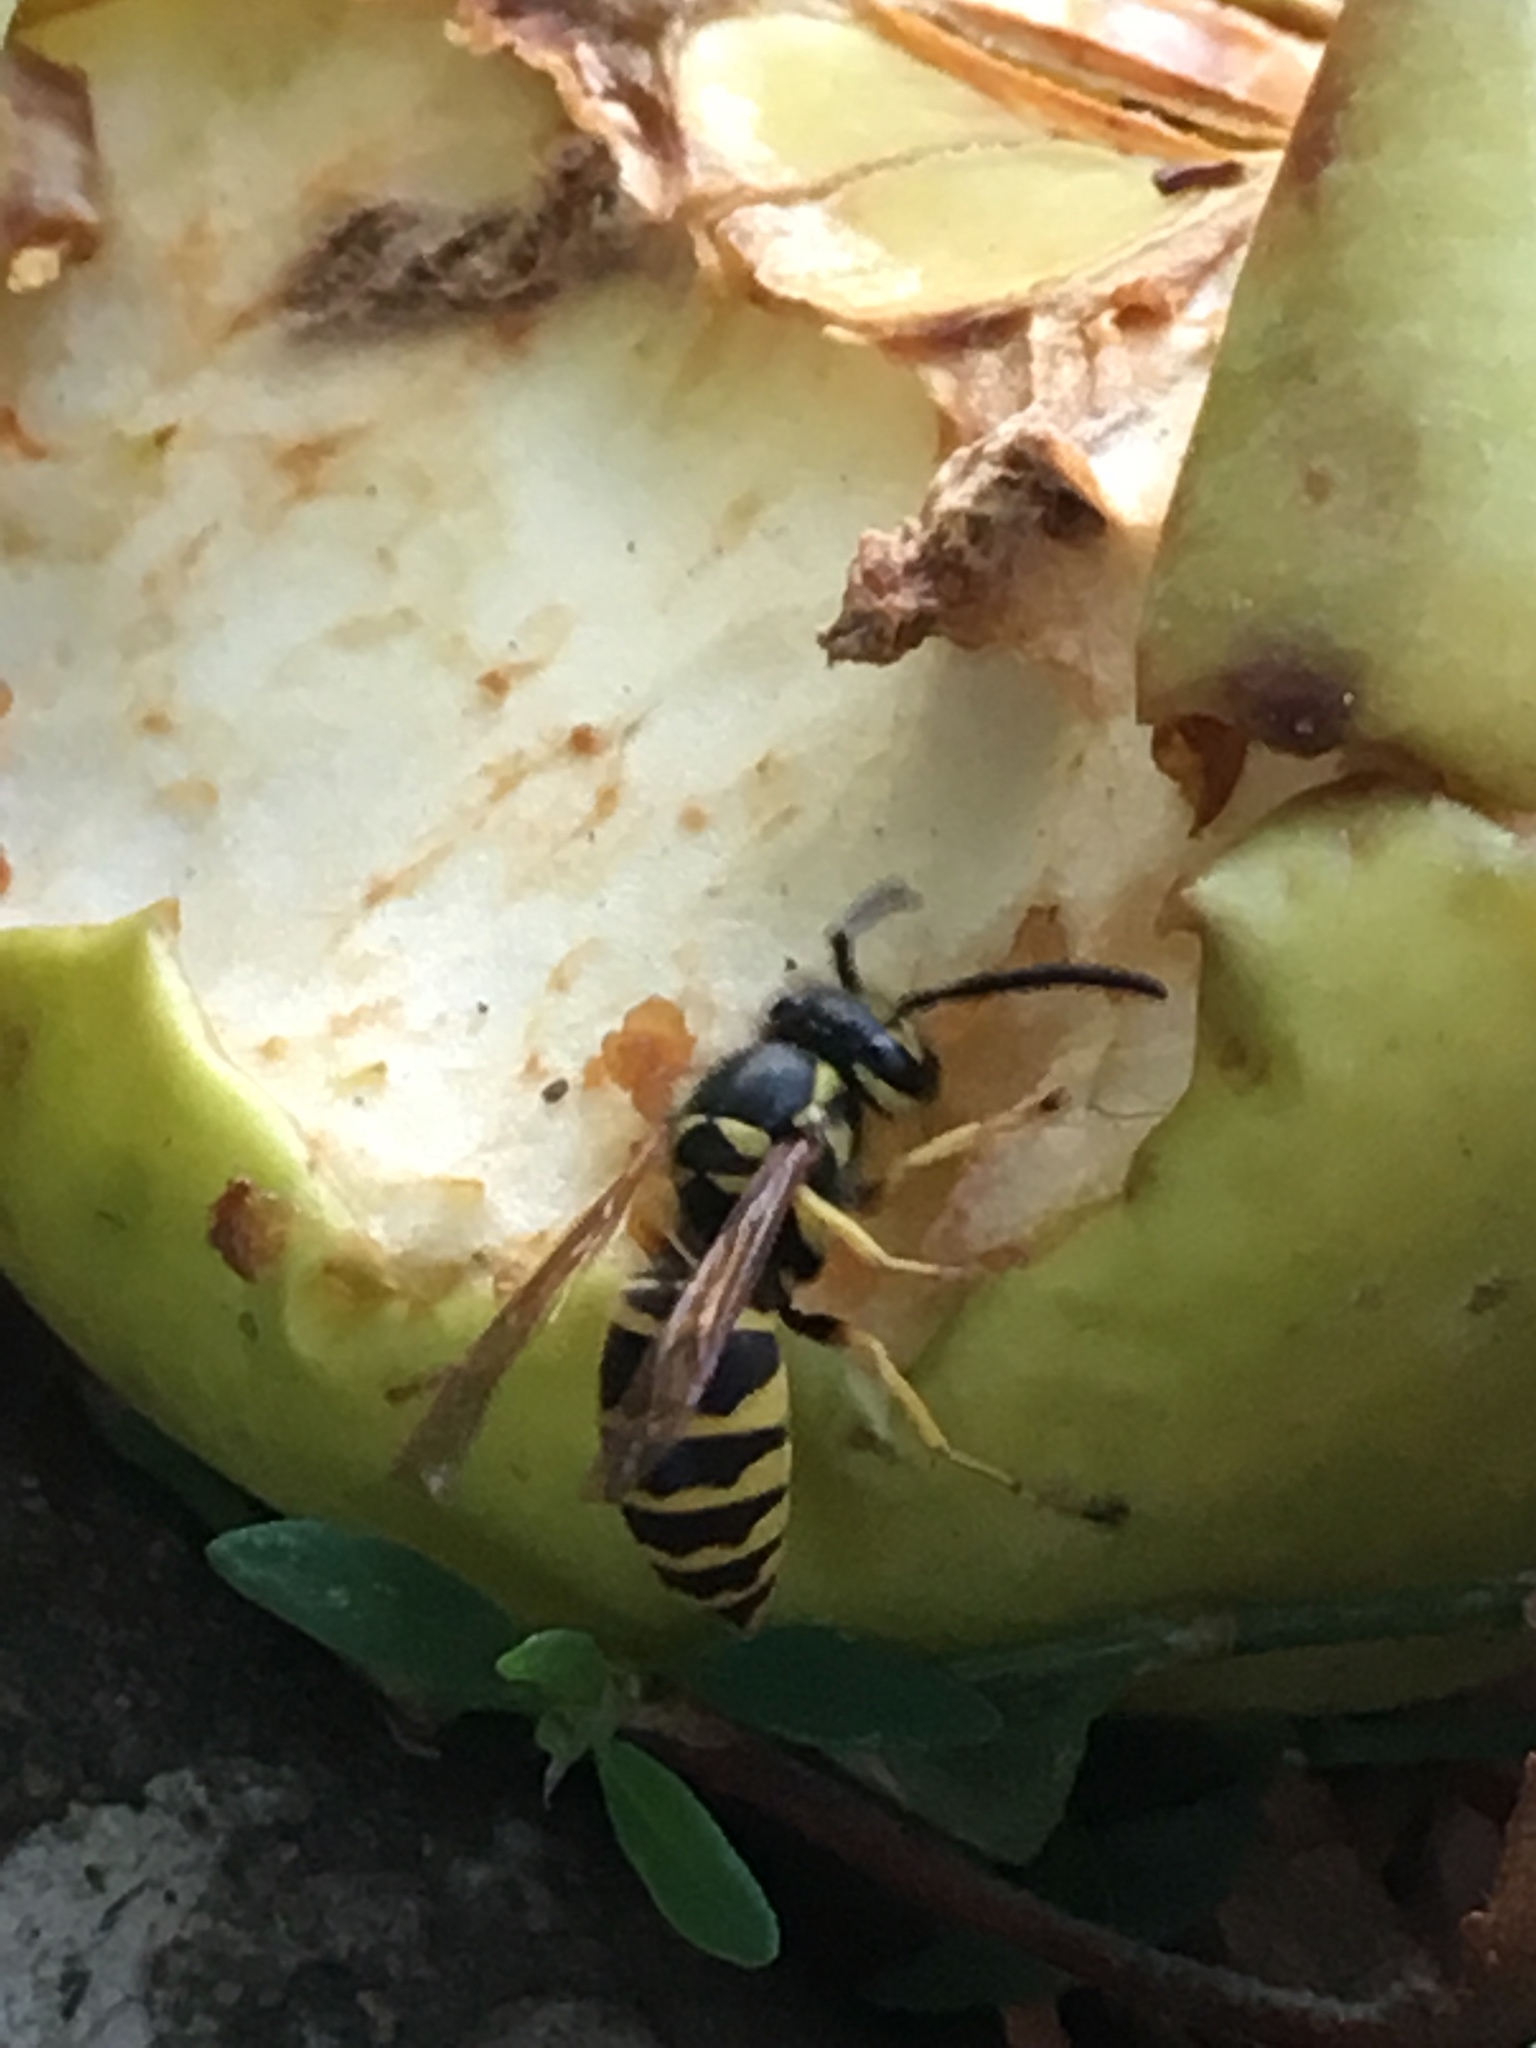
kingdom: Animalia
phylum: Arthropoda
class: Insecta
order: Hymenoptera
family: Vespidae
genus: Vespula
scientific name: Vespula maculifrons
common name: Eastern yellowjacket
